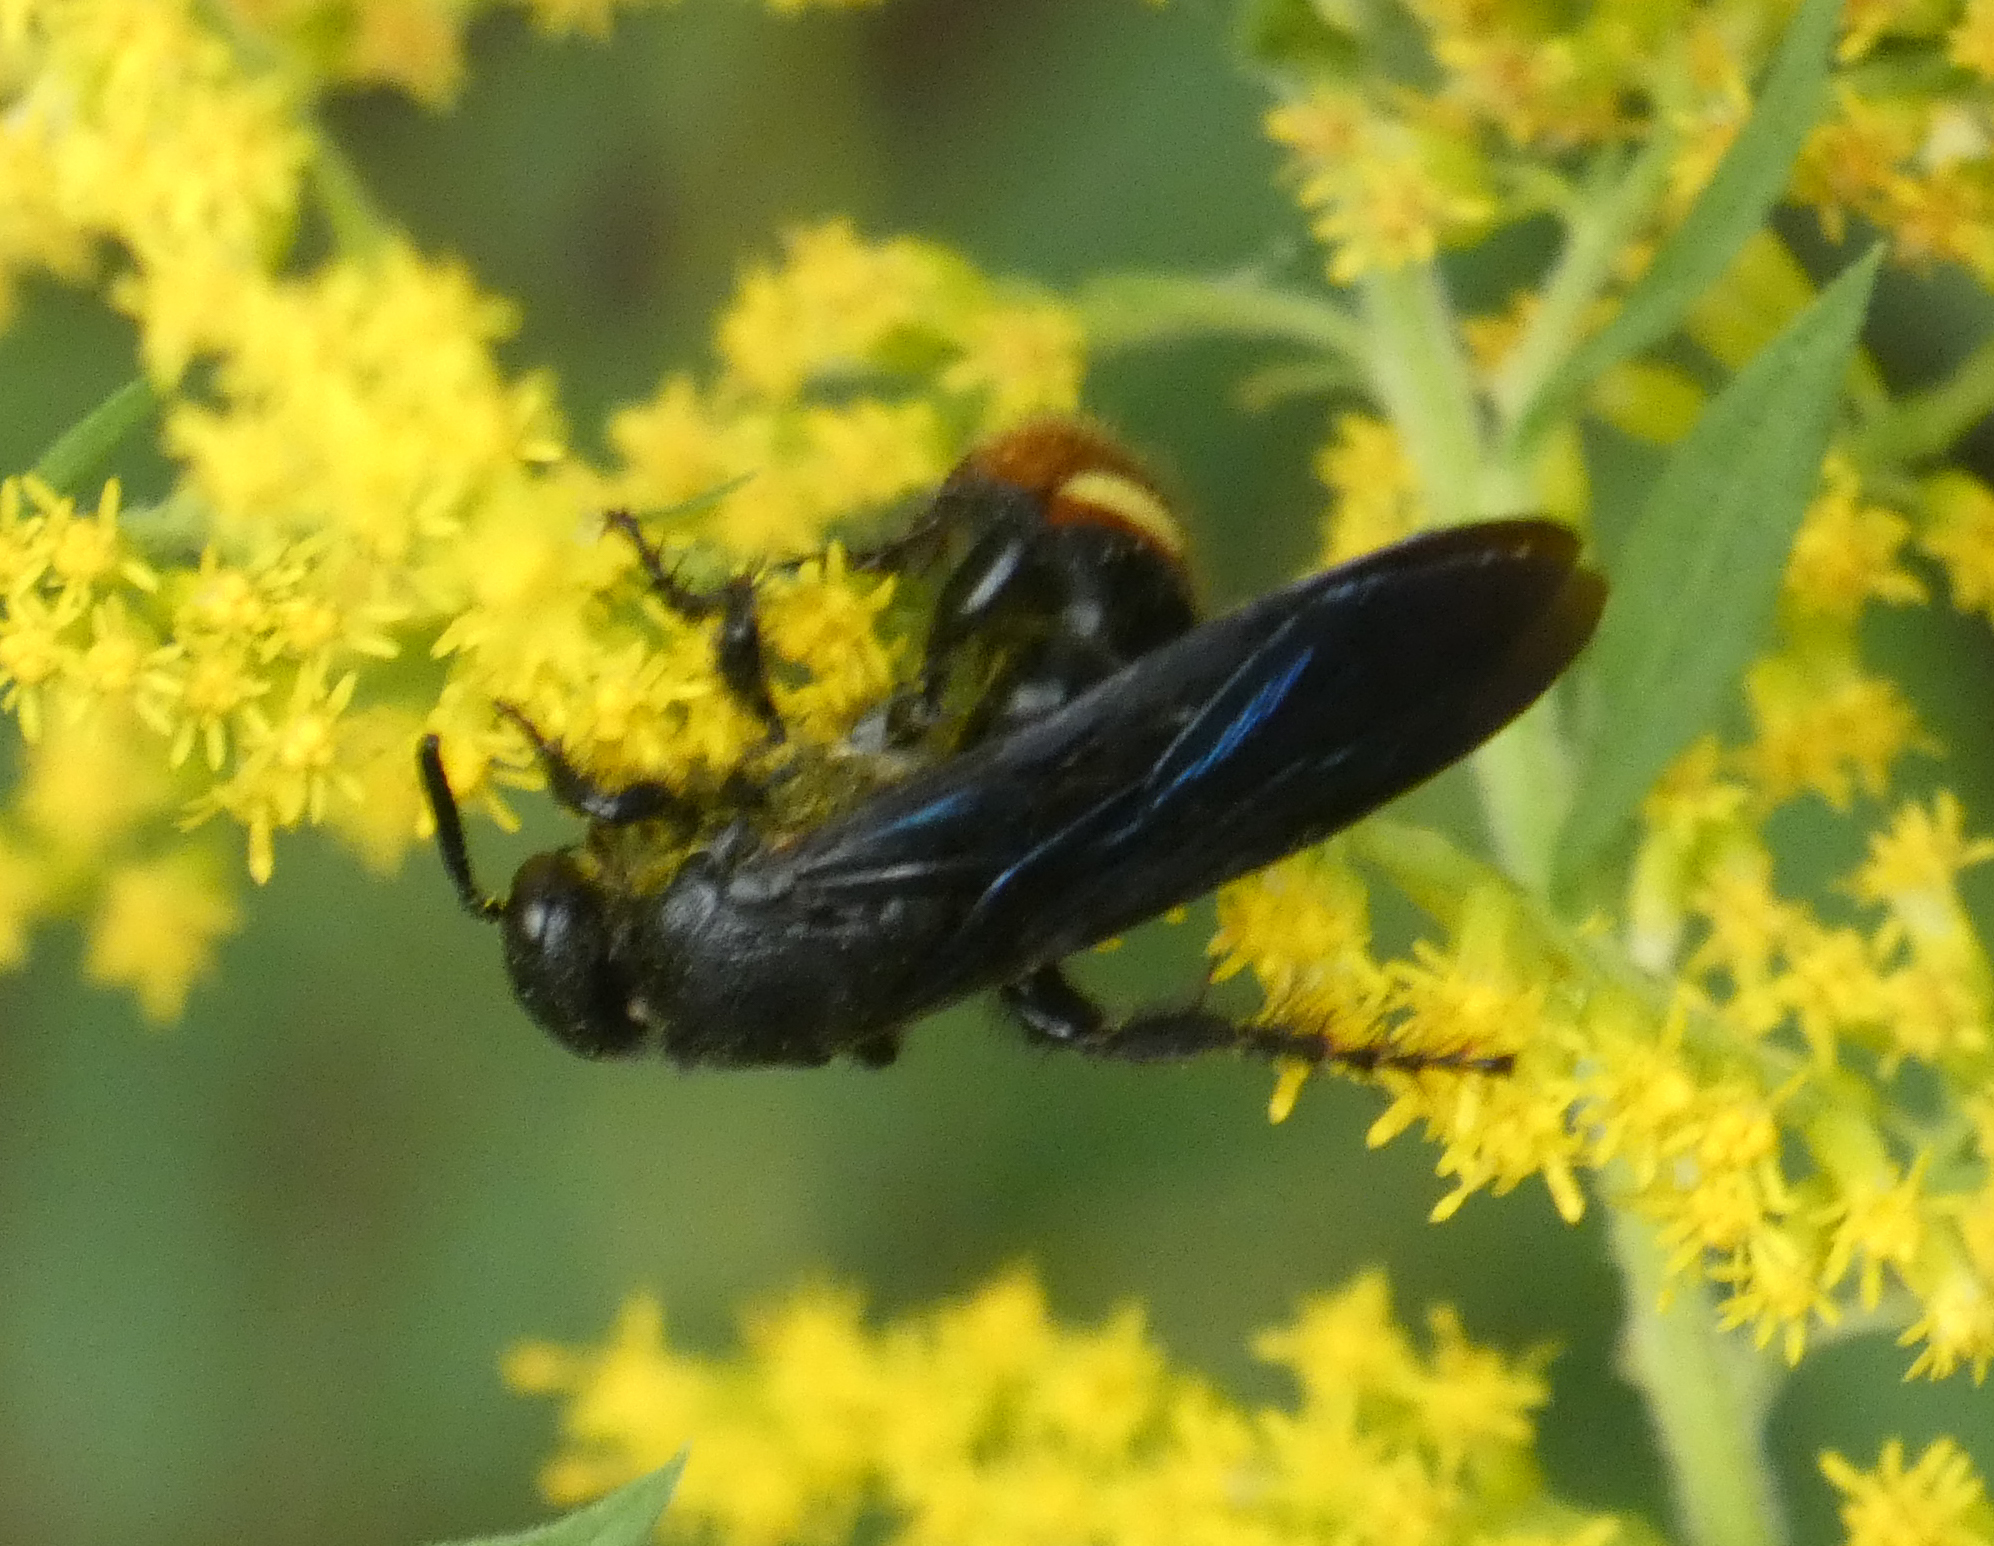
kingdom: Animalia
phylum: Arthropoda
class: Insecta
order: Hymenoptera
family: Scoliidae
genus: Scolia
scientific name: Scolia dubia
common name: Blue-winged scoliid wasp
